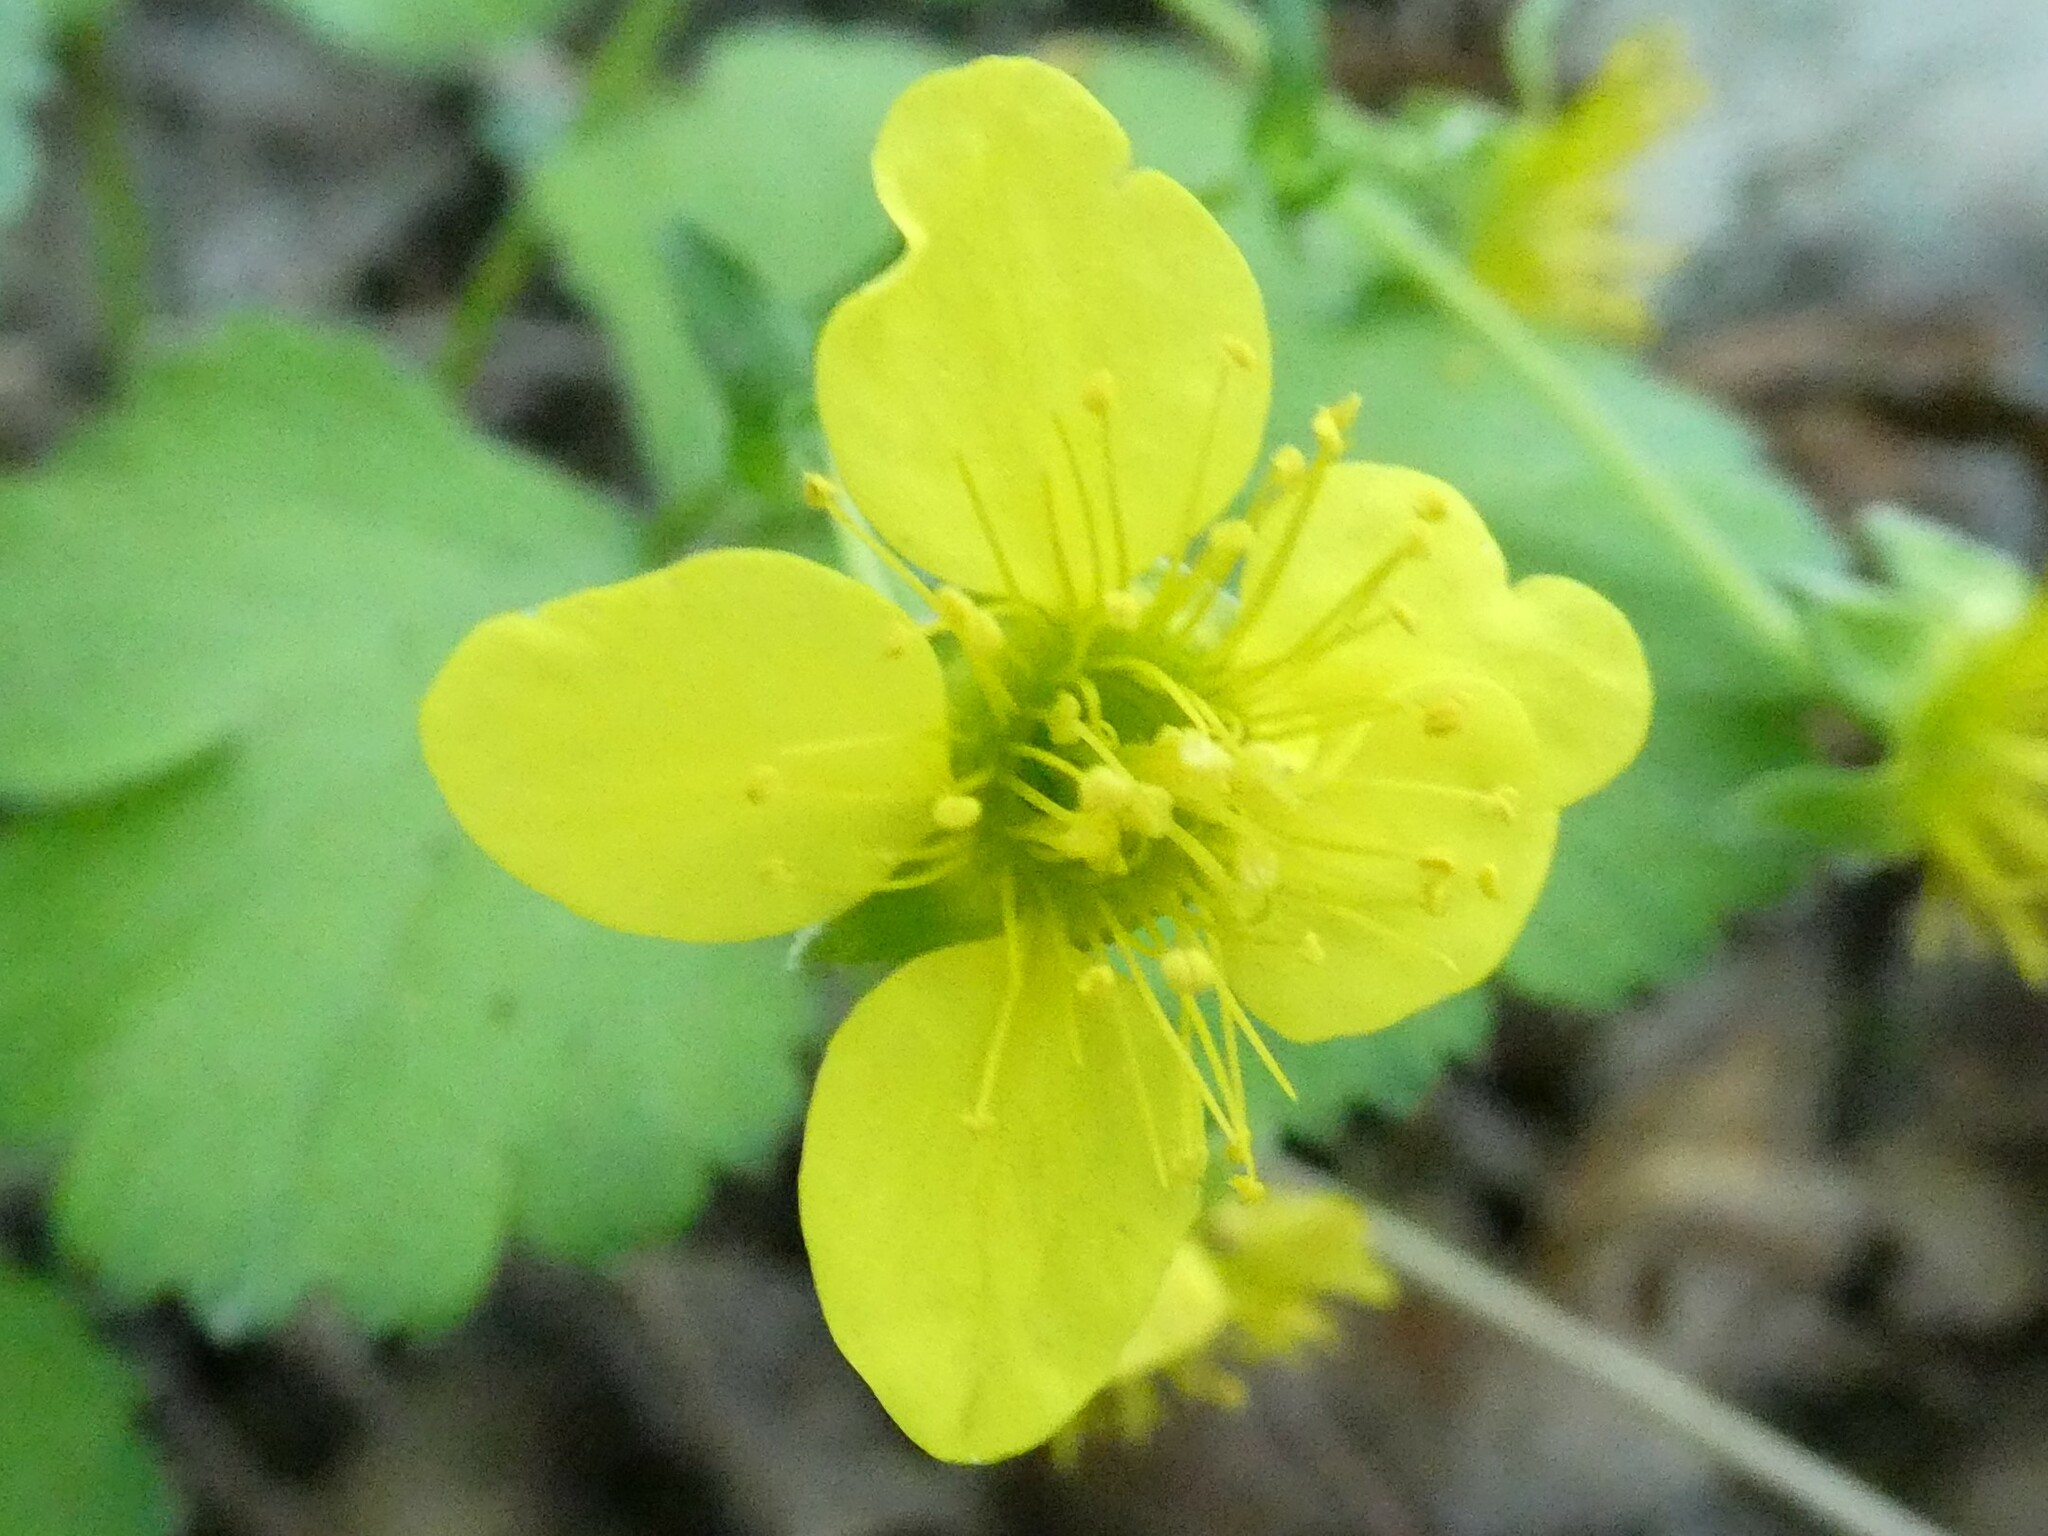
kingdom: Plantae
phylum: Tracheophyta
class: Magnoliopsida
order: Rosales
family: Rosaceae
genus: Geum
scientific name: Geum fragarioides
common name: Appalachian barren strawberry
